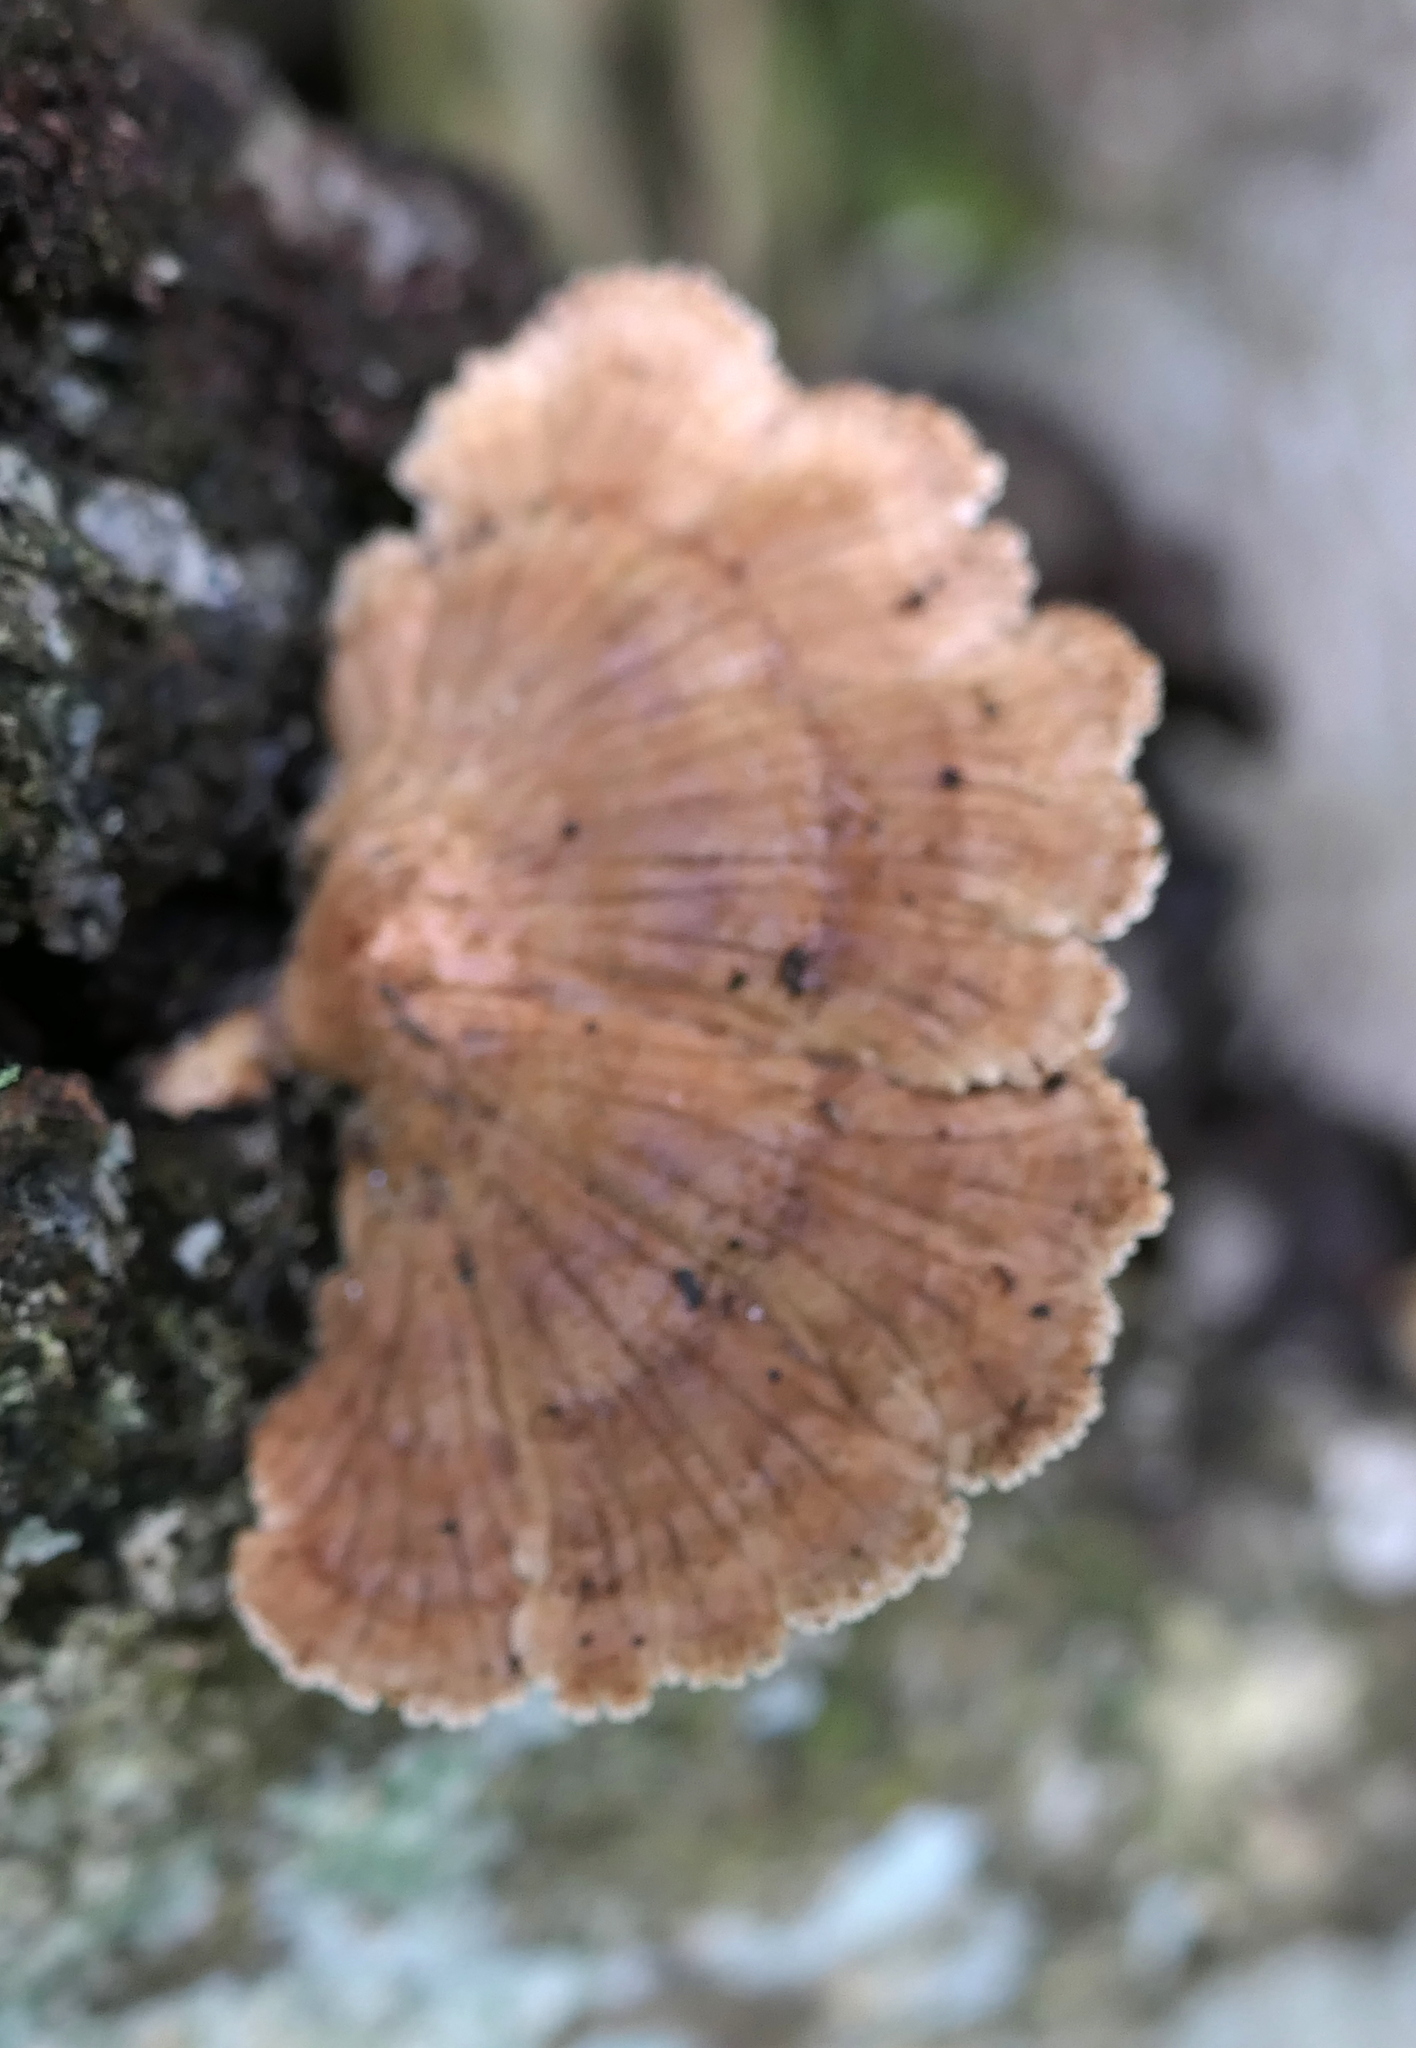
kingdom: Fungi
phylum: Basidiomycota
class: Agaricomycetes
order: Agaricales
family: Schizophyllaceae
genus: Schizophyllum
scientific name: Schizophyllum commune
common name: Common porecrust
